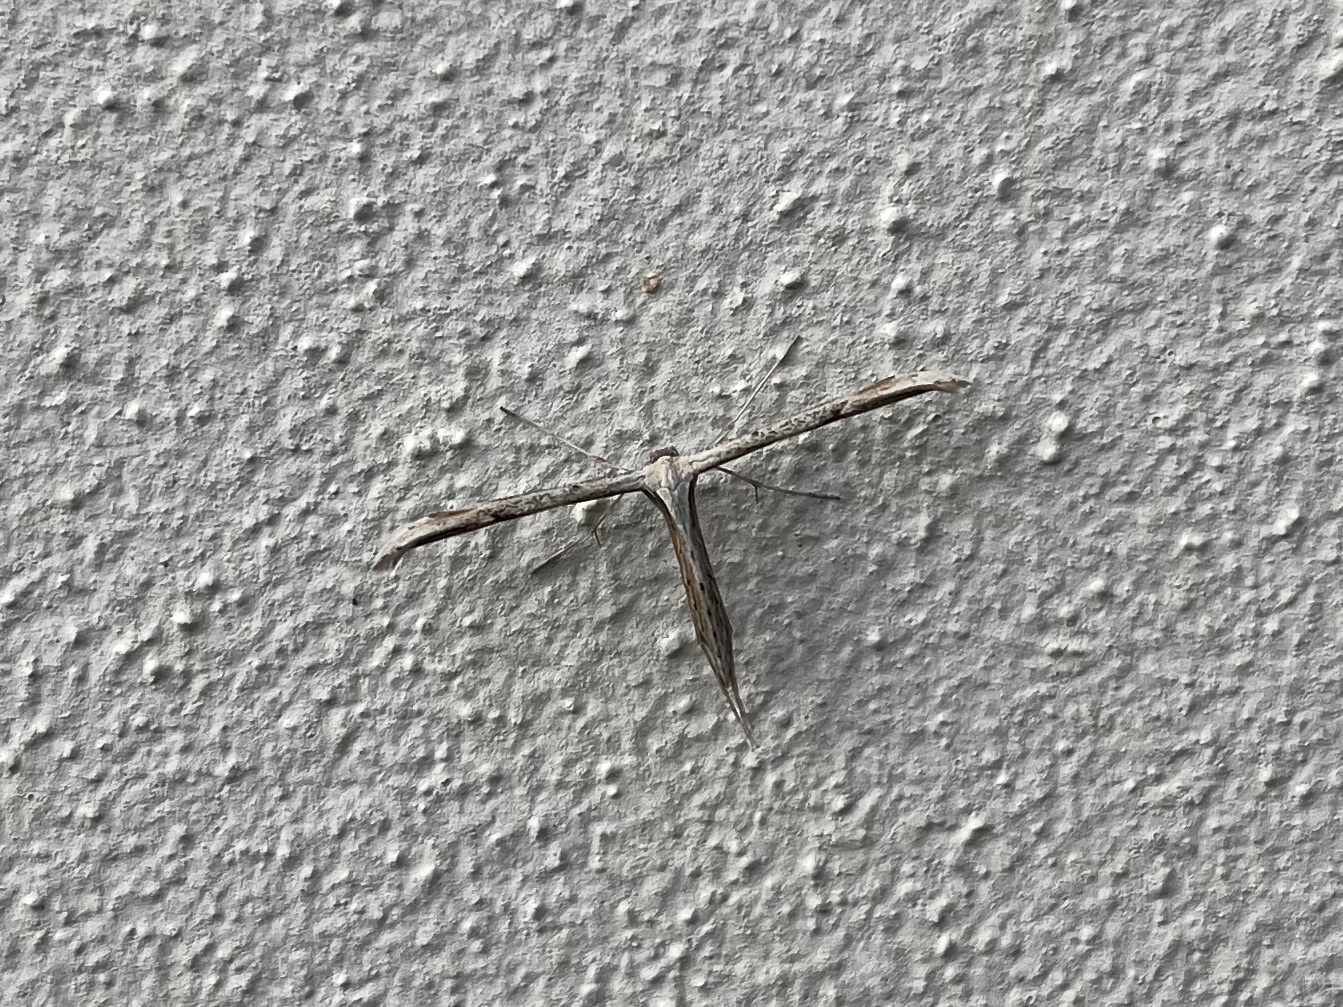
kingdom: Animalia
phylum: Arthropoda
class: Insecta
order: Lepidoptera
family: Pterophoridae
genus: Emmelina
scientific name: Emmelina monodactyla
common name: Common plume
